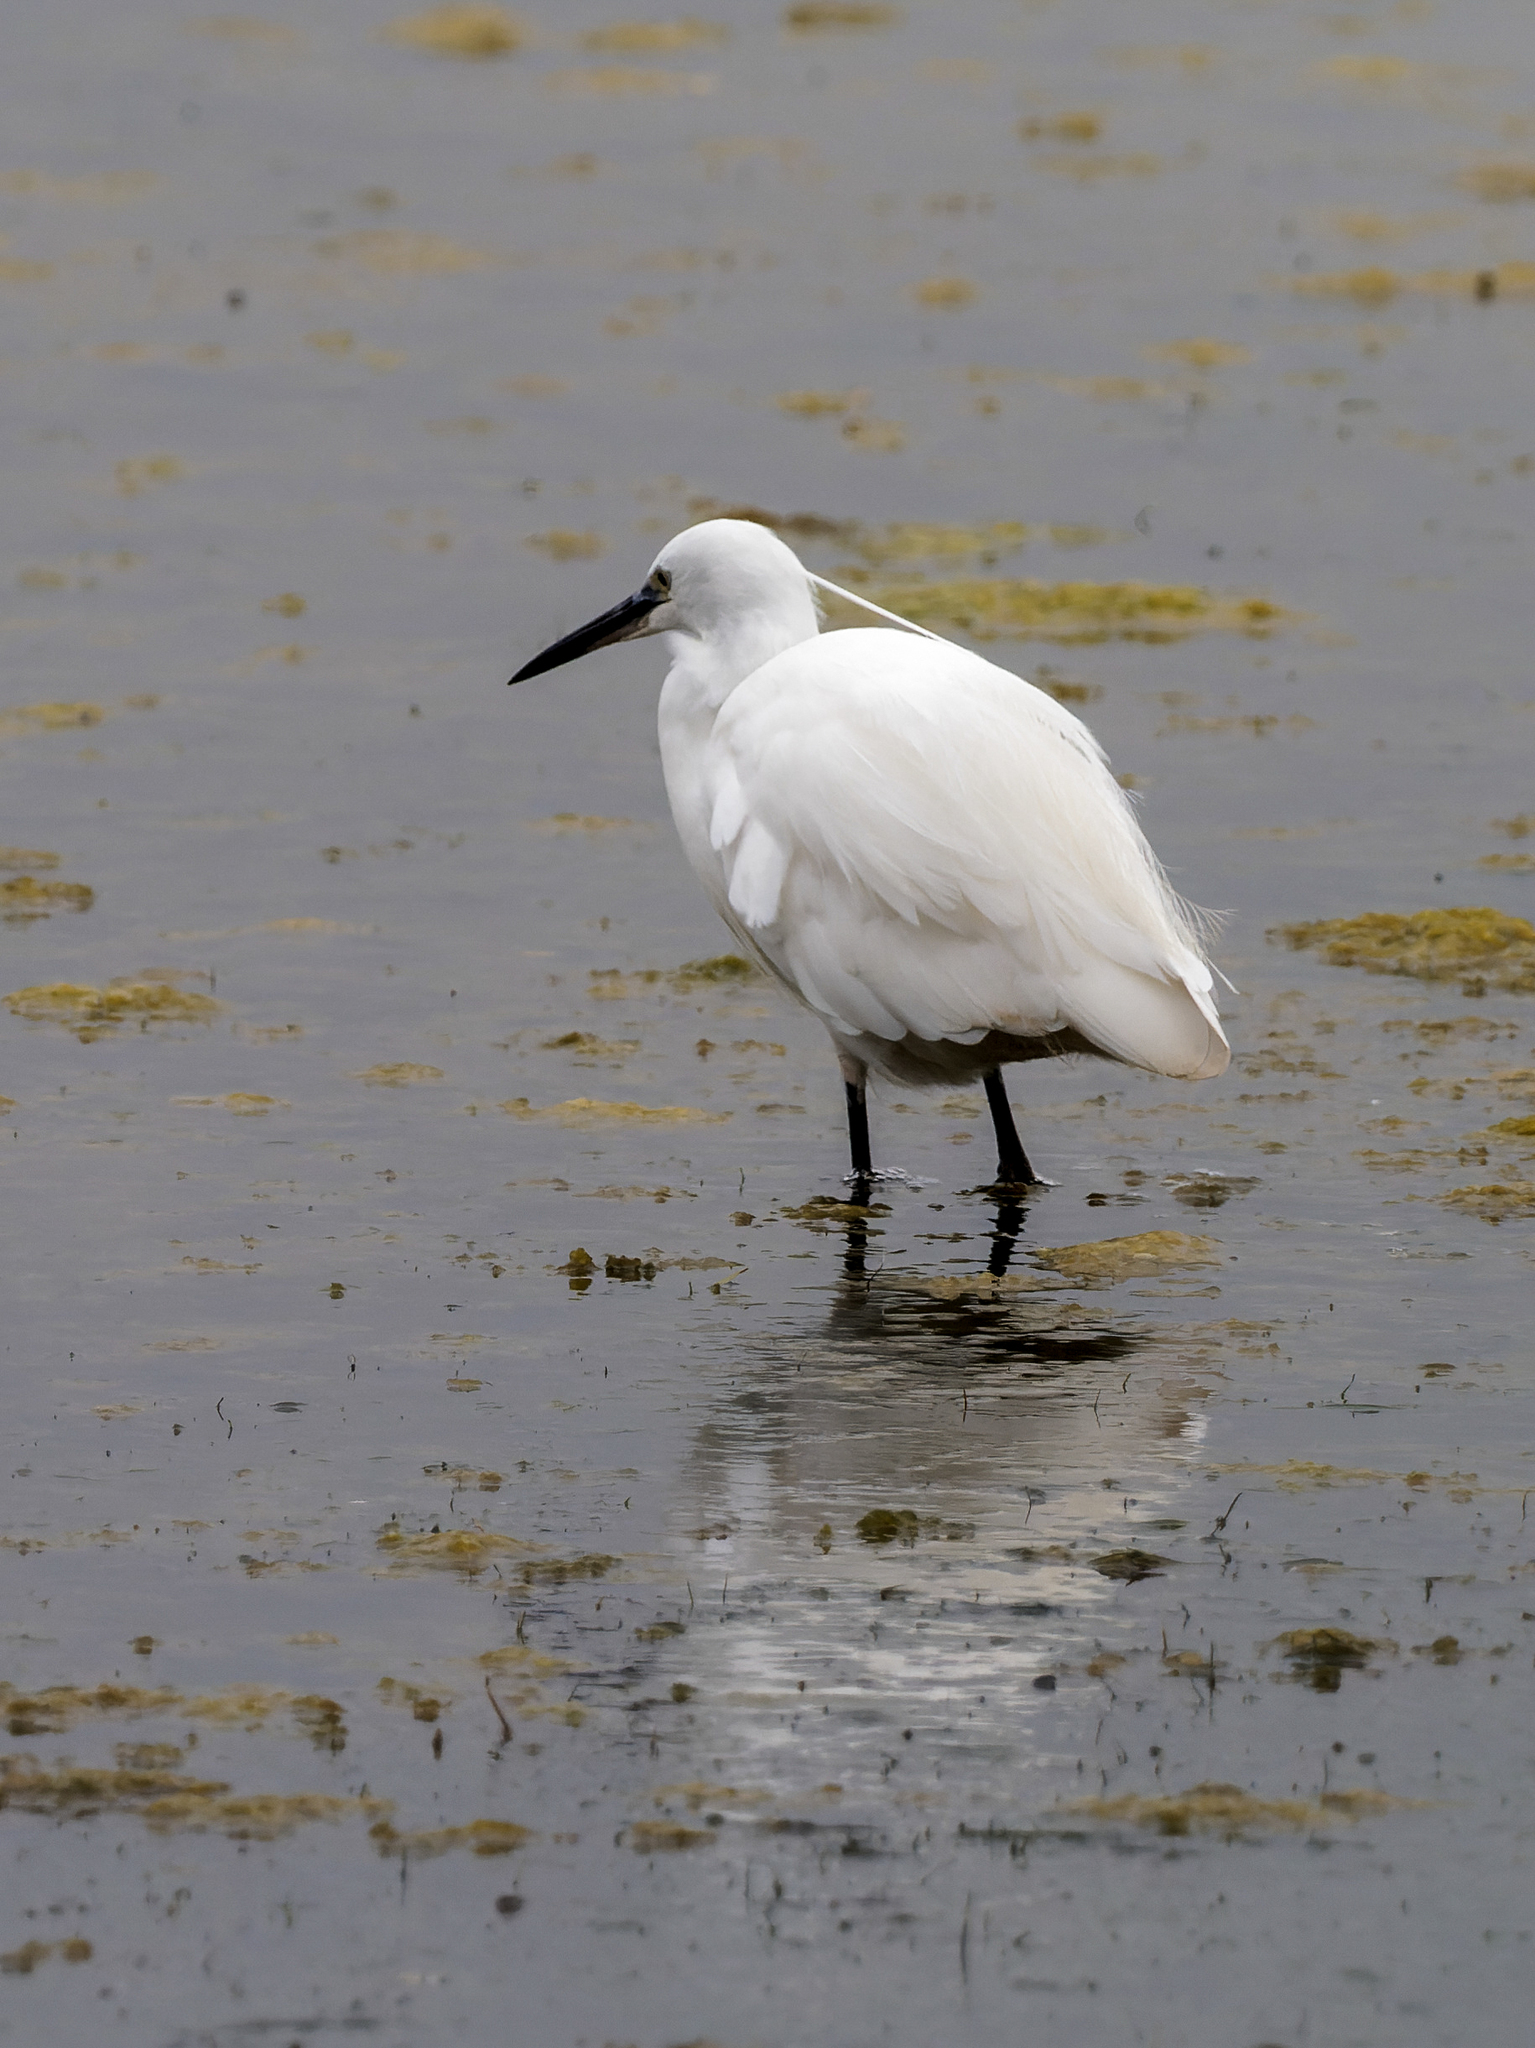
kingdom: Animalia
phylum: Chordata
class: Aves
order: Pelecaniformes
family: Ardeidae
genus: Egretta
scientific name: Egretta garzetta
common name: Little egret
